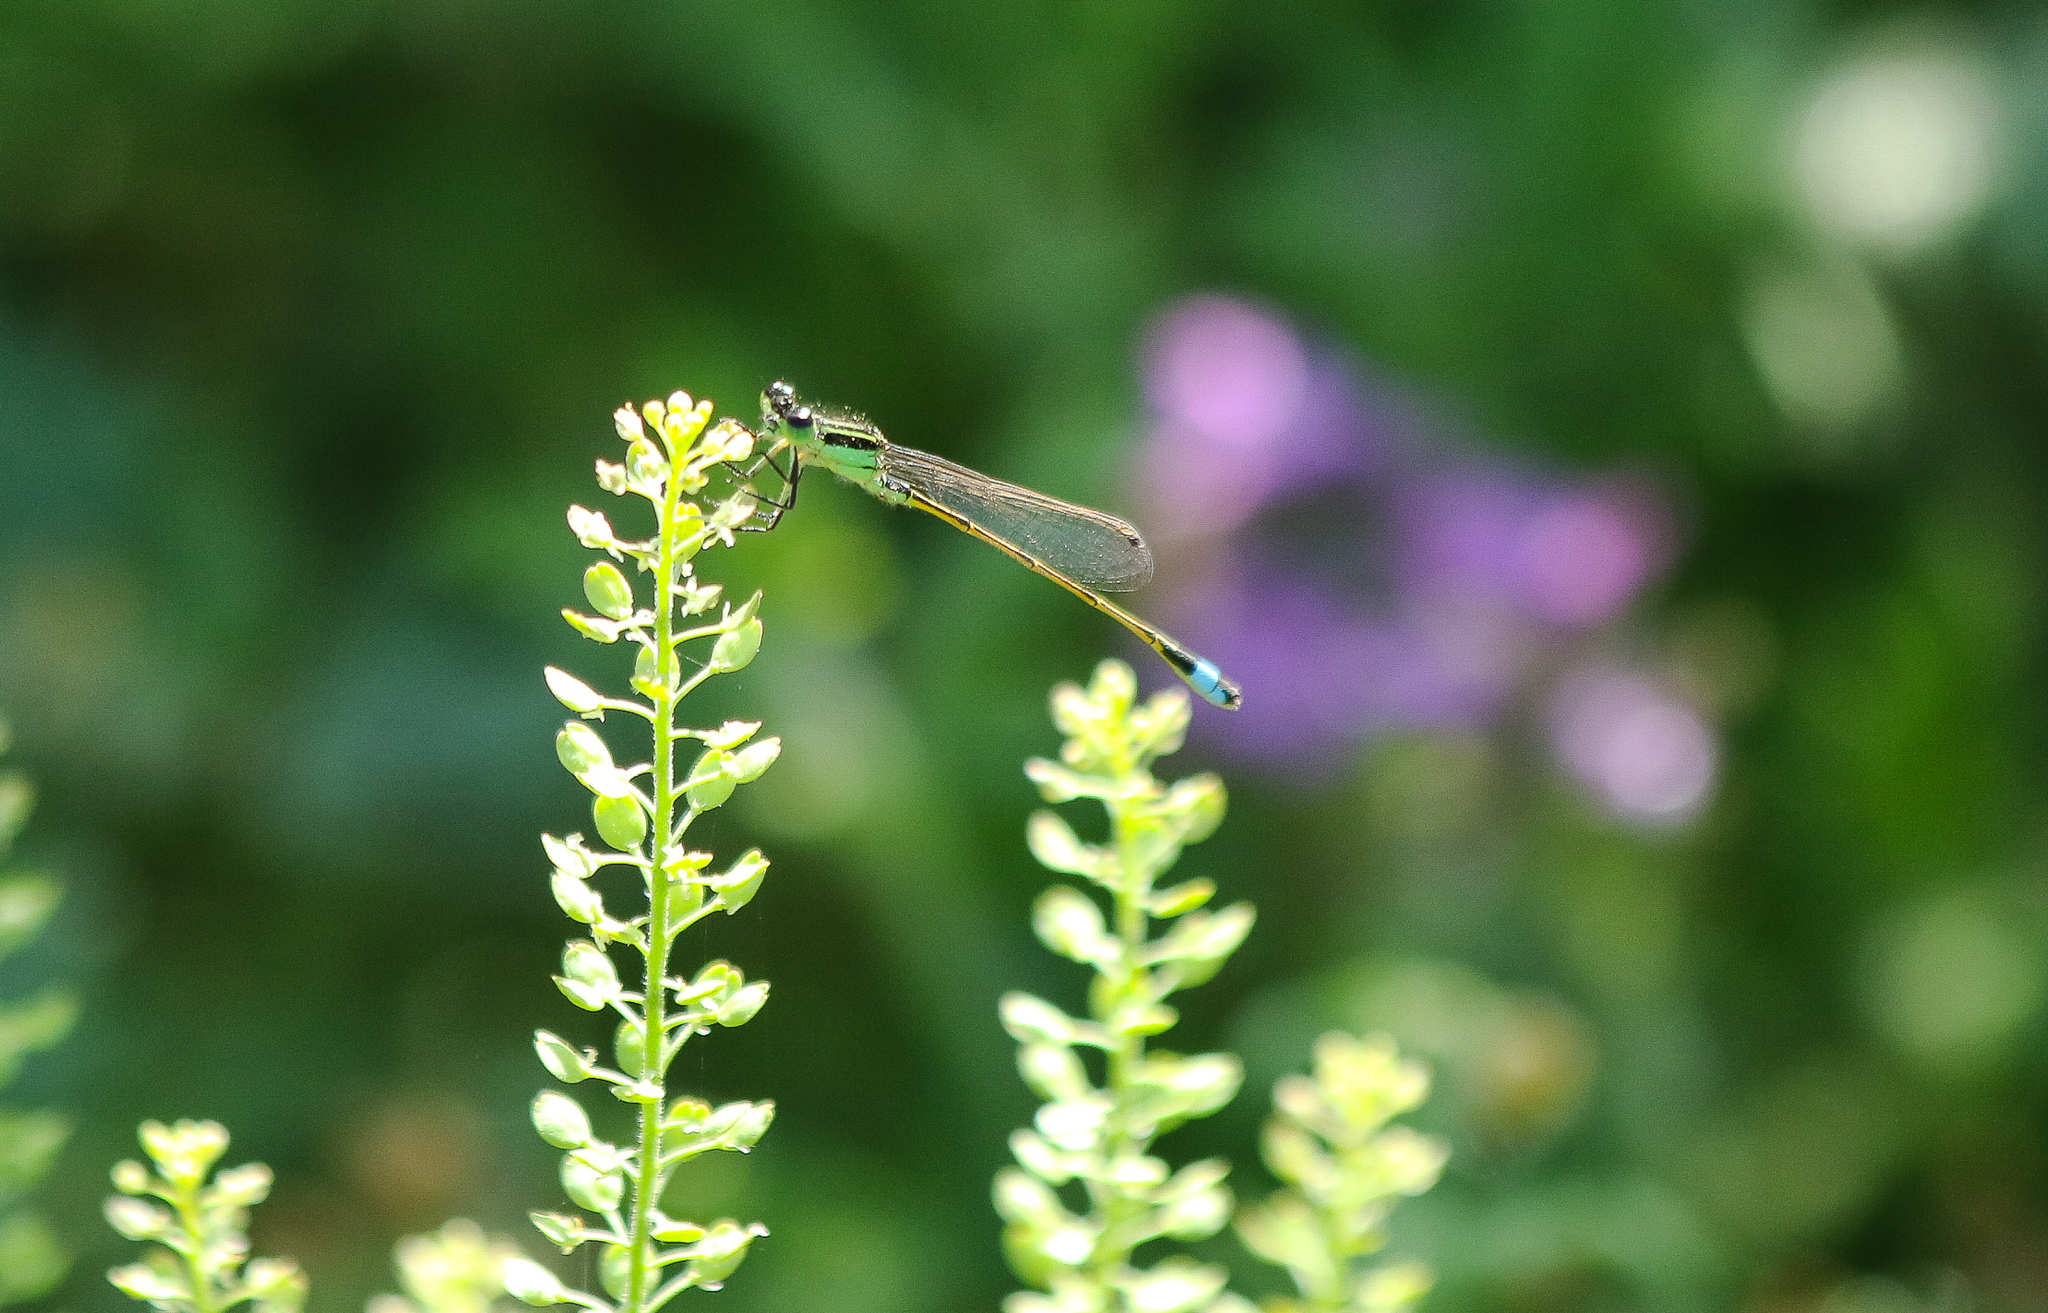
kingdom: Animalia
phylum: Arthropoda
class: Insecta
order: Odonata
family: Coenagrionidae
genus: Ischnura
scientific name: Ischnura ramburii
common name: Rambur's forktail
